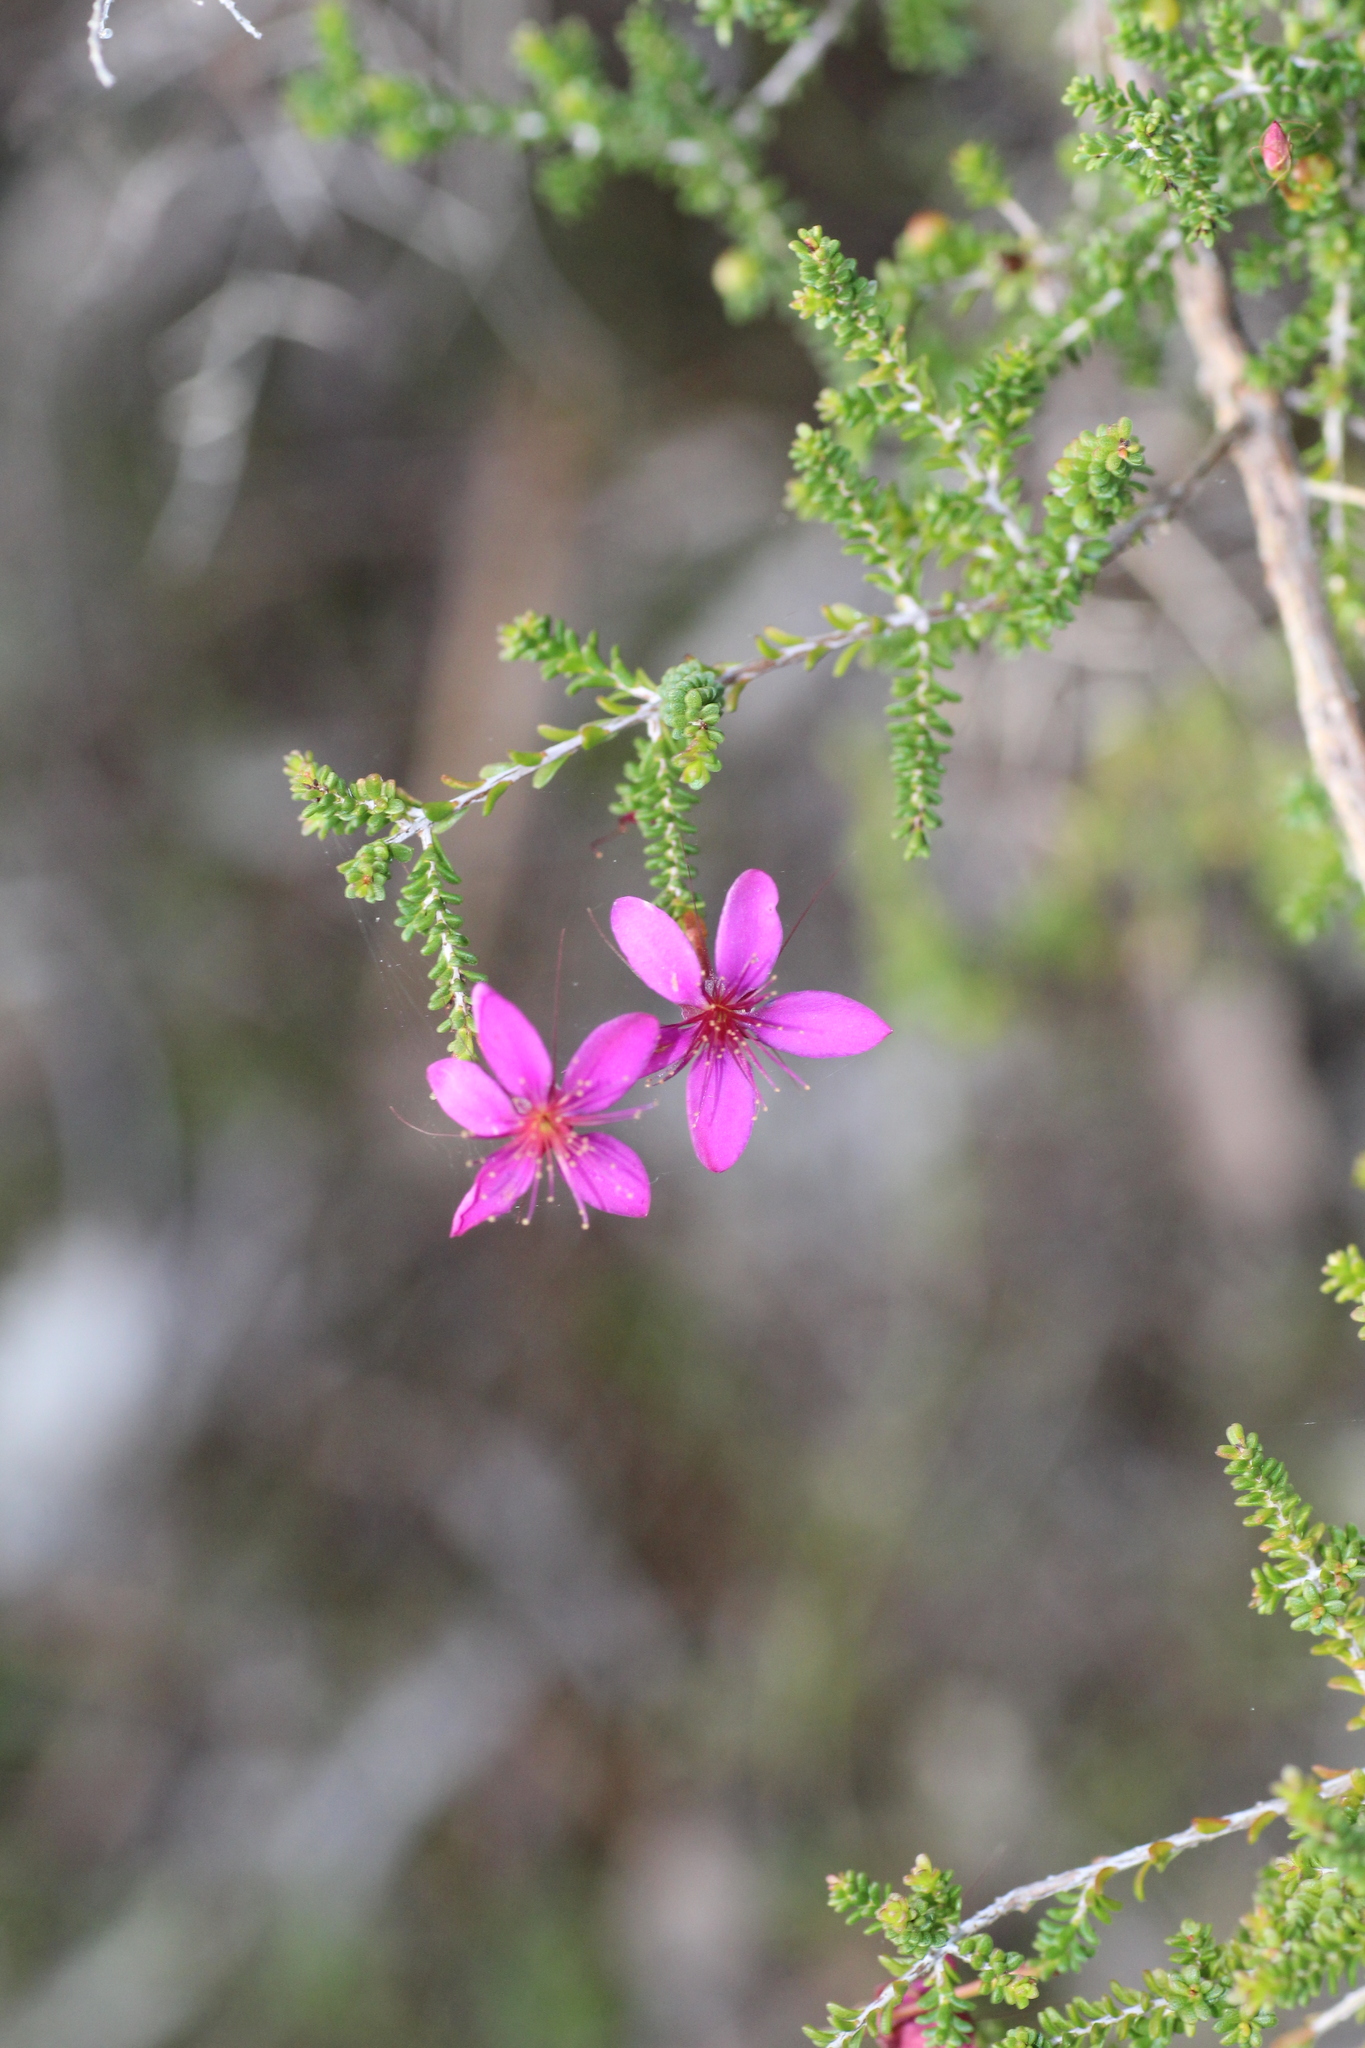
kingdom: Plantae
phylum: Tracheophyta
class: Magnoliopsida
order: Myrtales
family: Myrtaceae
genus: Calytrix
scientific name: Calytrix fraseri
